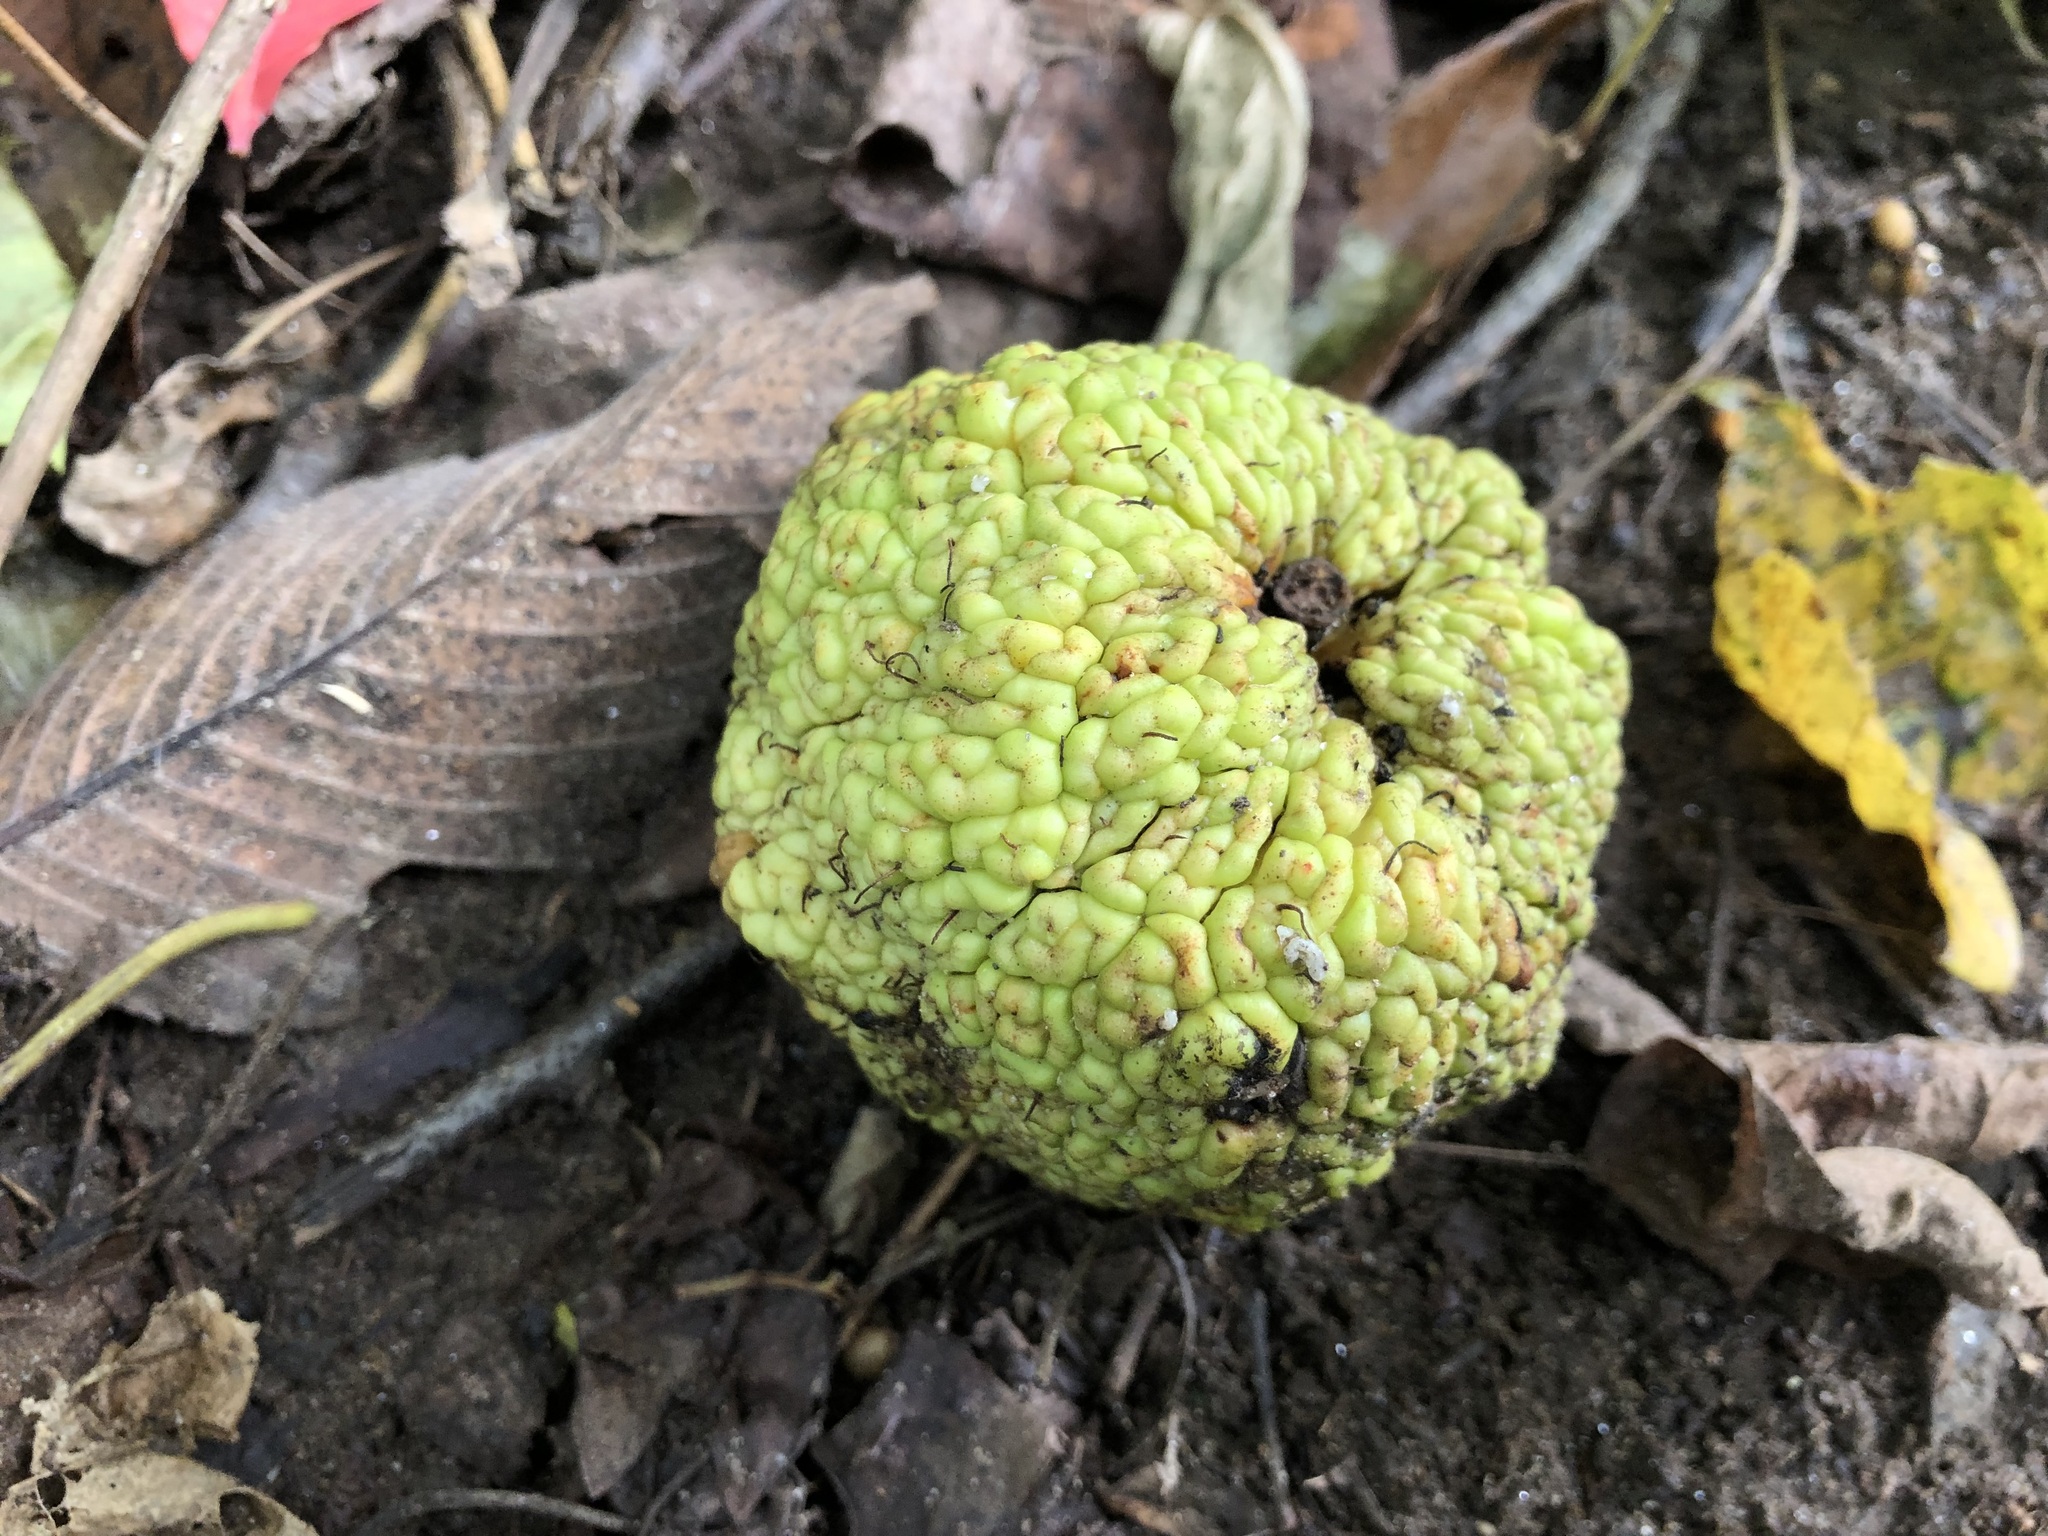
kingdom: Plantae
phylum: Tracheophyta
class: Magnoliopsida
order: Rosales
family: Moraceae
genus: Maclura
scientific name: Maclura pomifera
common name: Osage-orange
